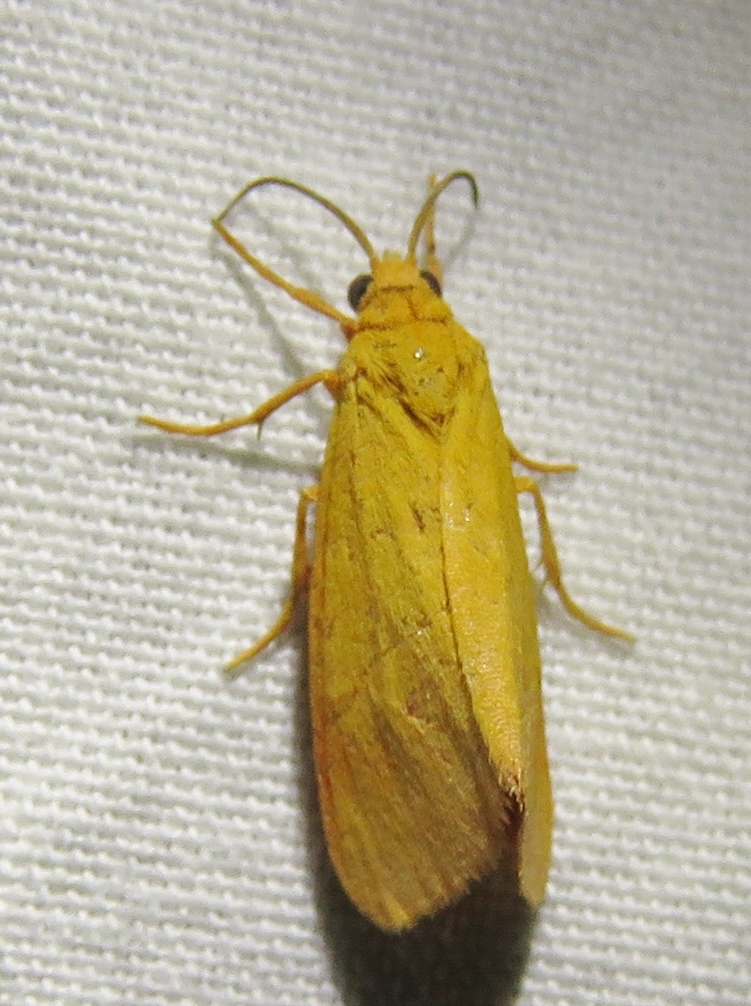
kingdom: Animalia
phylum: Arthropoda
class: Insecta
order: Lepidoptera
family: Erebidae
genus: Virbia
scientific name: Virbia aurantiaca
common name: Orange virbia moth
